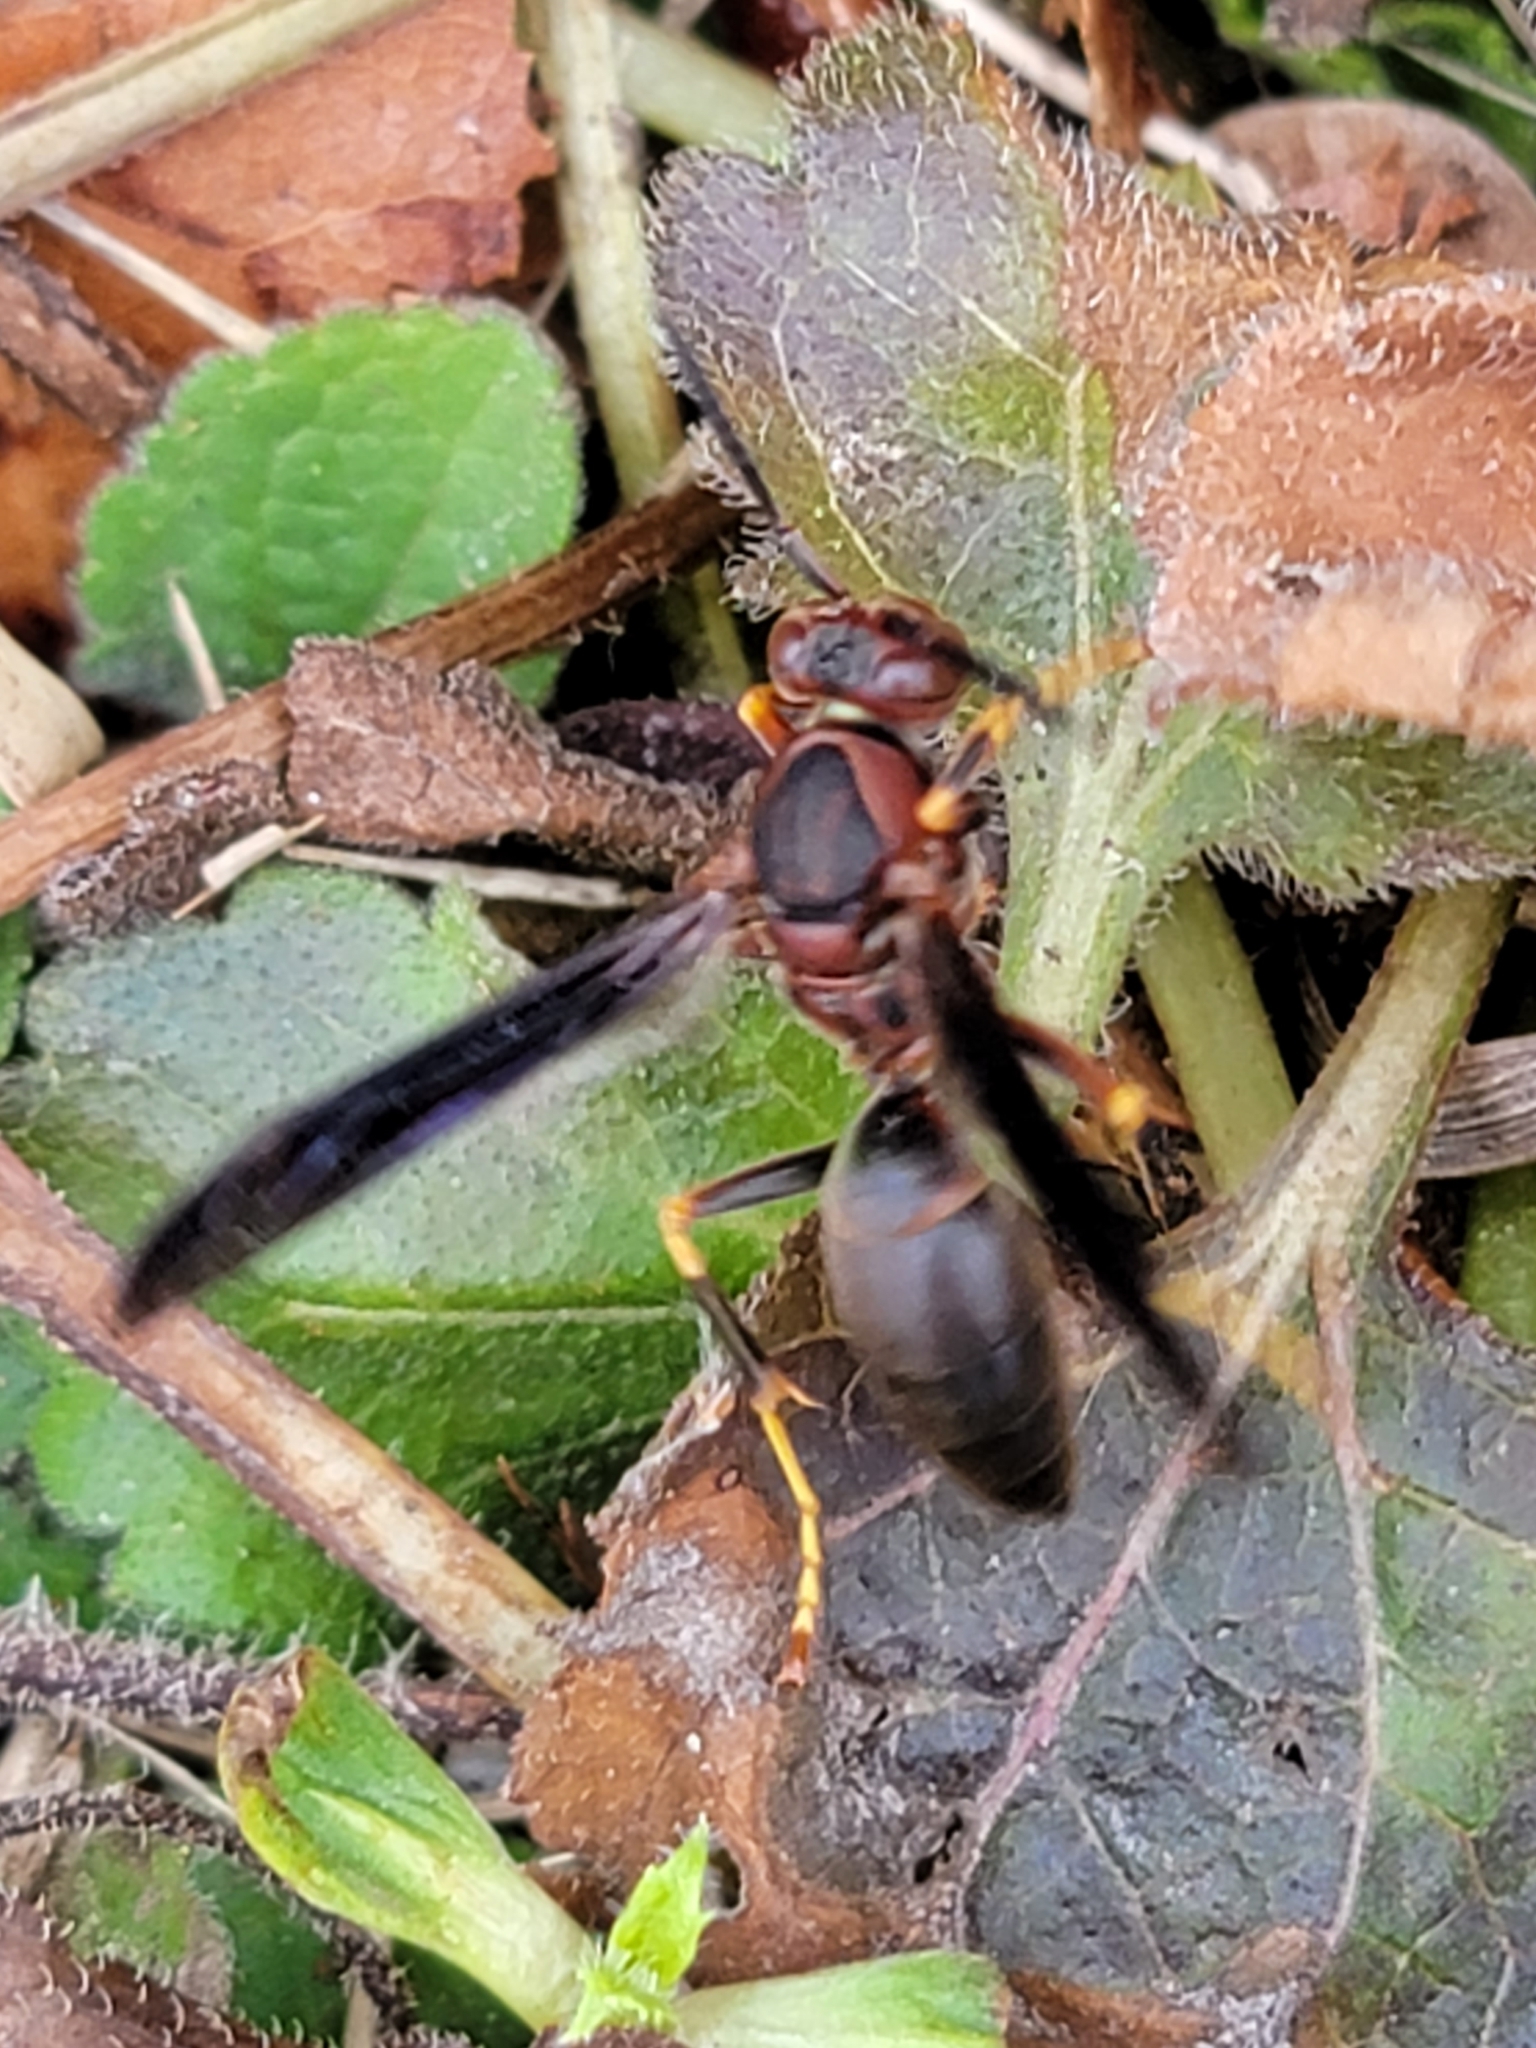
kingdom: Animalia
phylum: Arthropoda
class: Insecta
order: Hymenoptera
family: Eumenidae
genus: Polistes
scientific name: Polistes metricus
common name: Metric paper wasp
